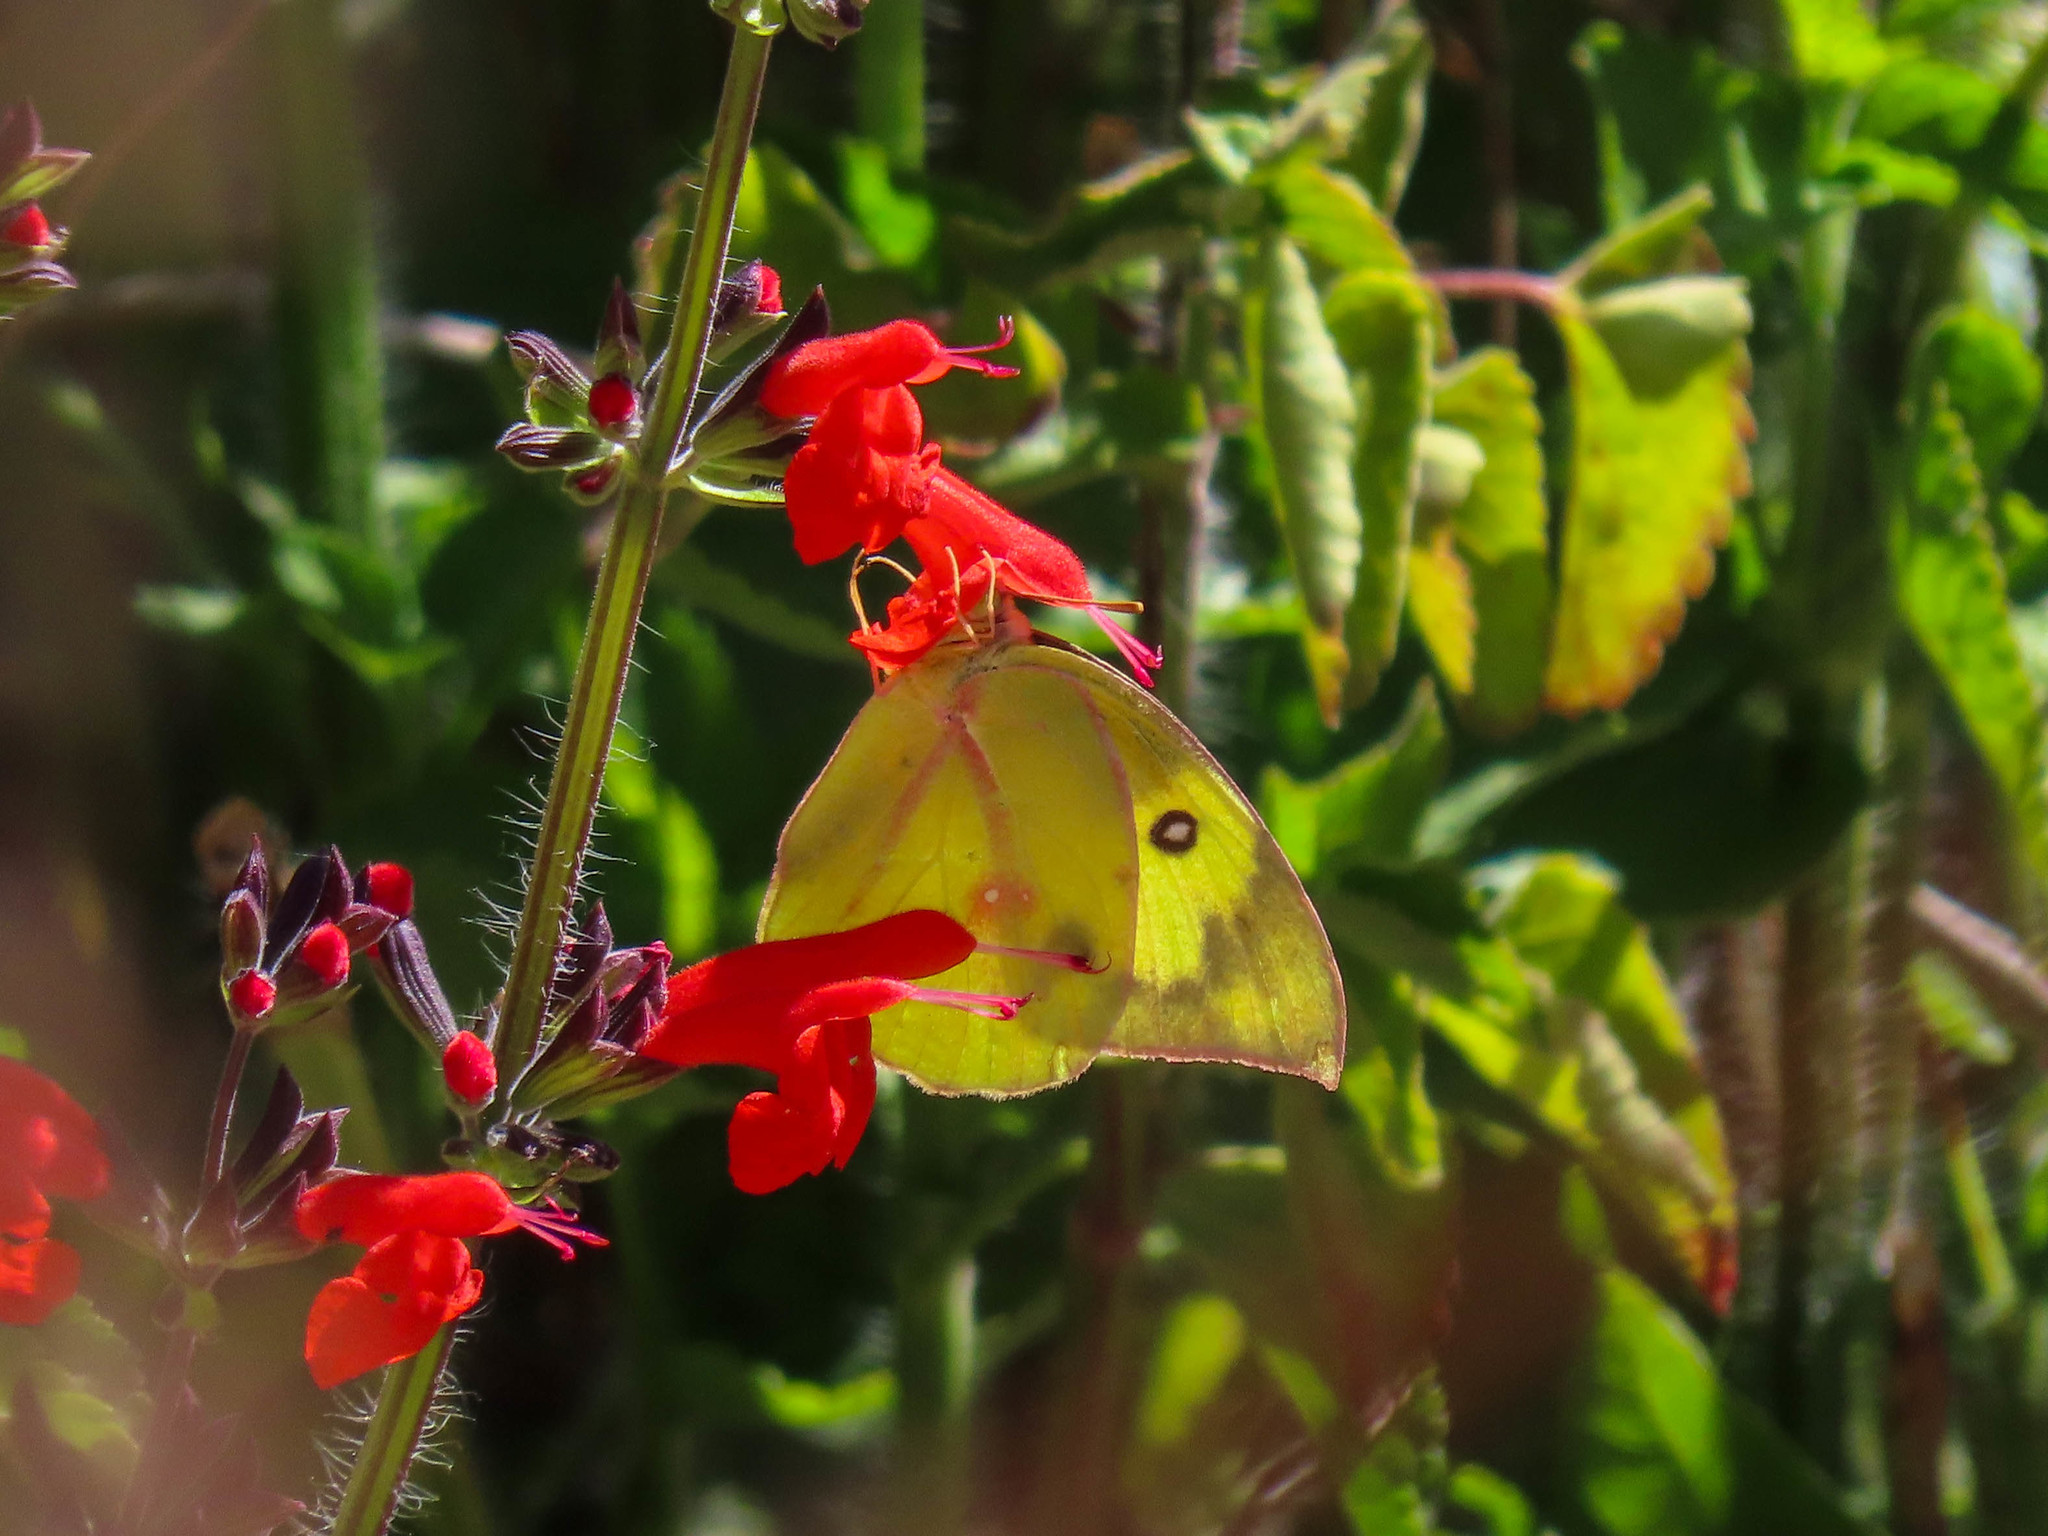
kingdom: Animalia
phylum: Arthropoda
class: Insecta
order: Lepidoptera
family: Pieridae
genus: Zerene
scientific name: Zerene cesonia
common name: Southern dogface
